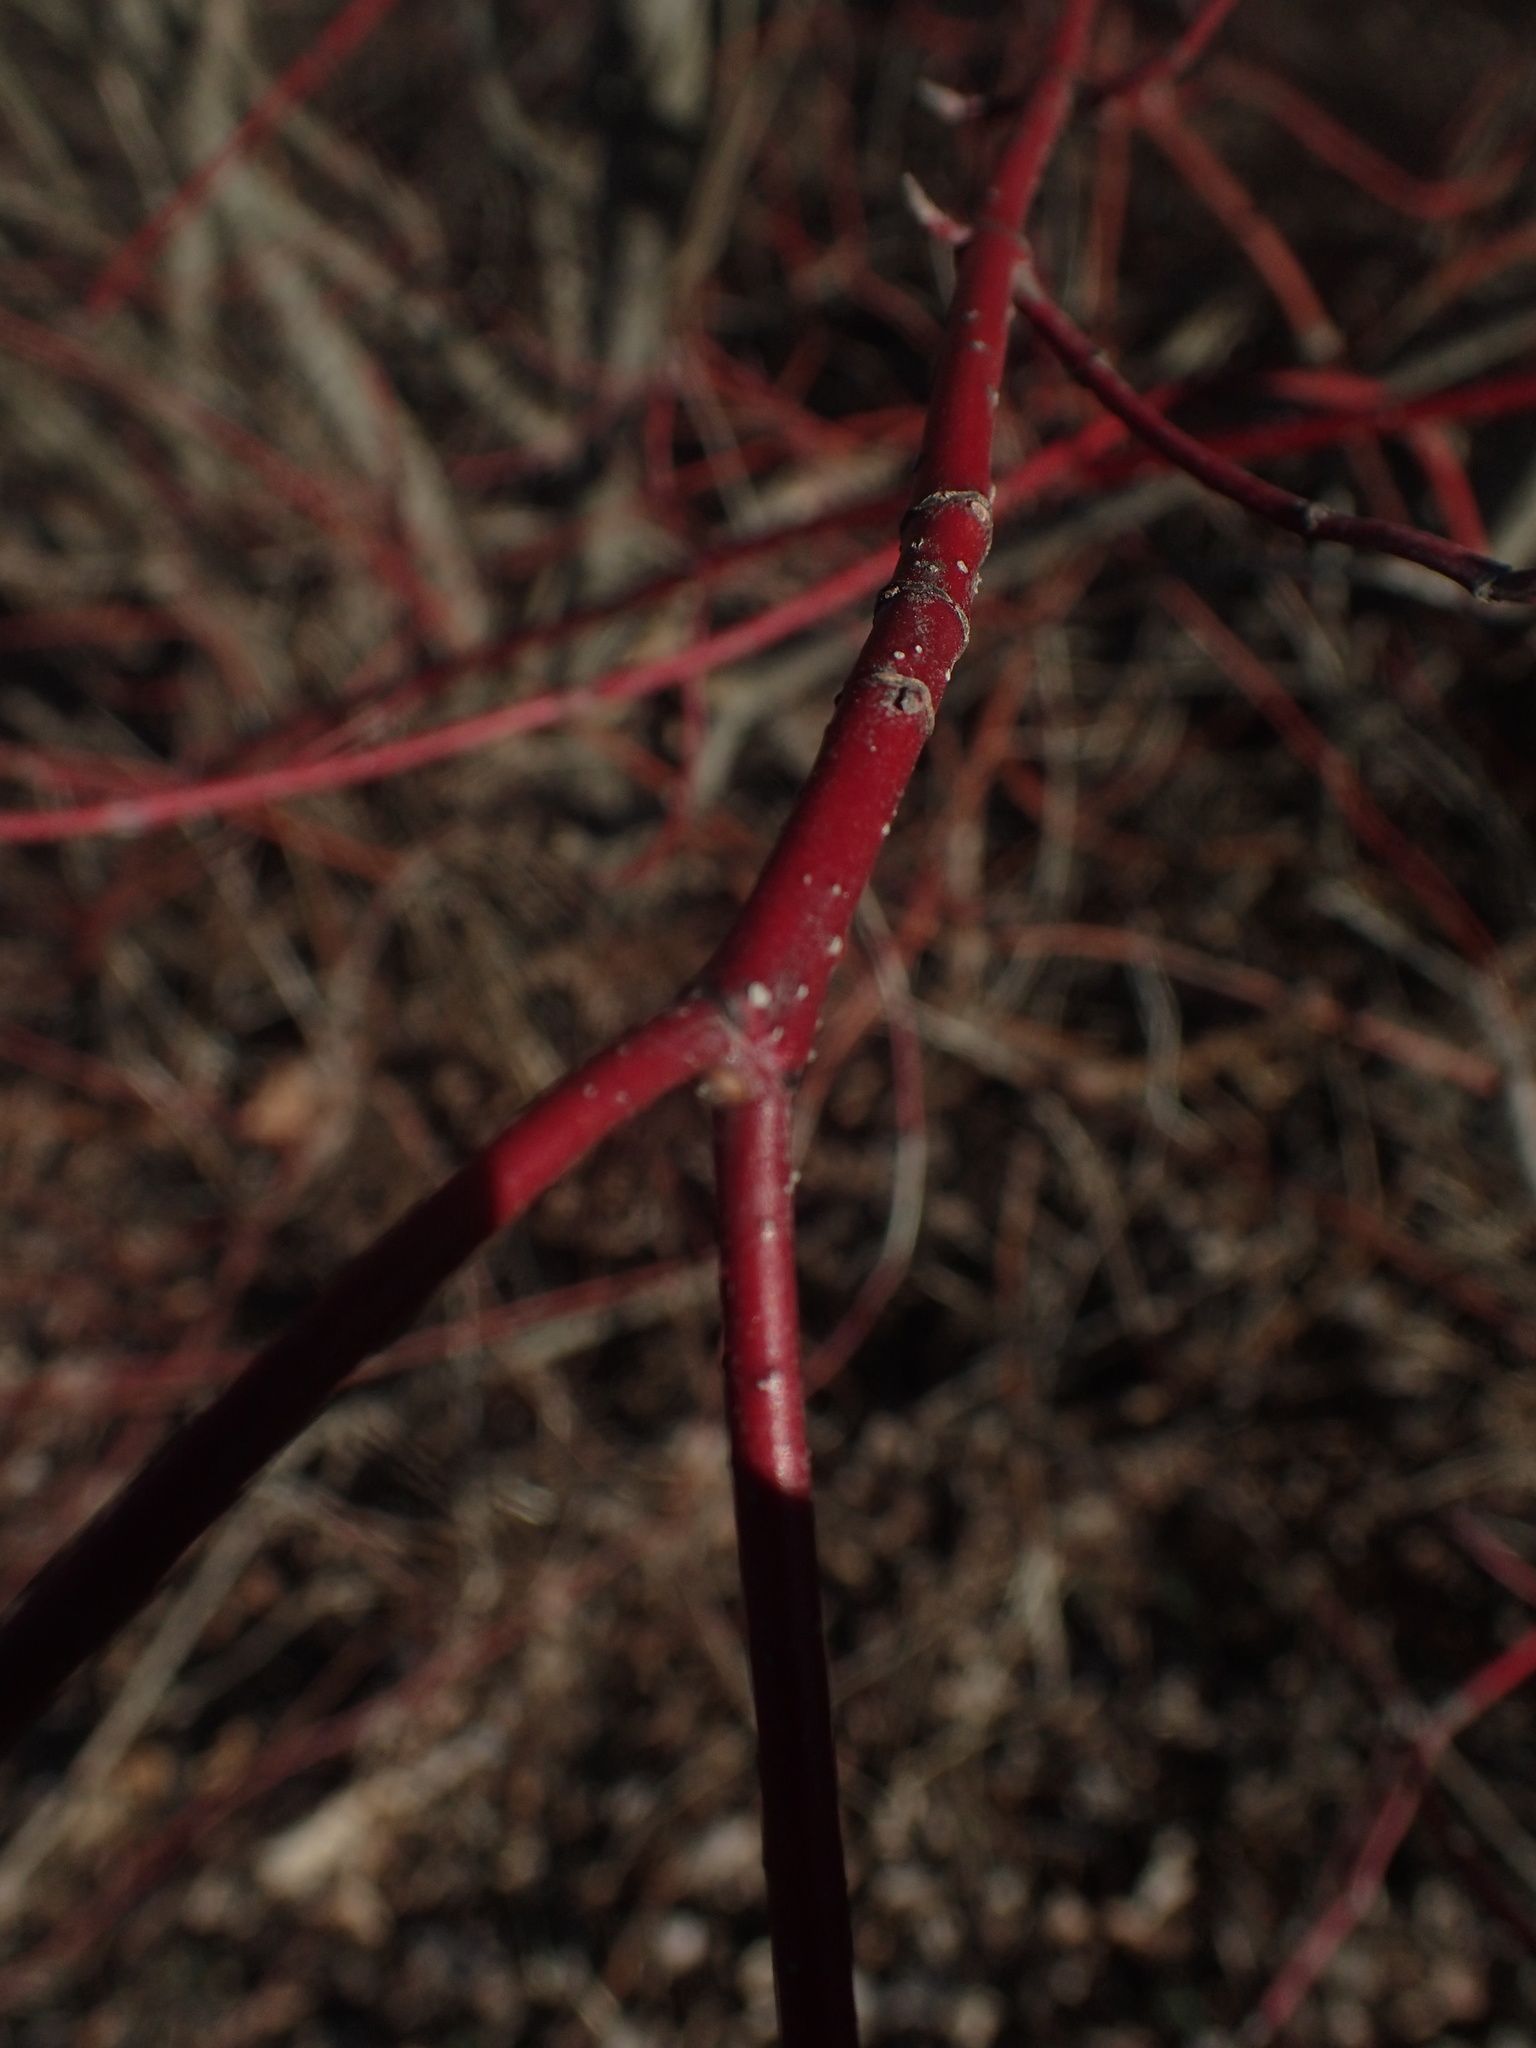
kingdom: Plantae
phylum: Tracheophyta
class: Magnoliopsida
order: Cornales
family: Cornaceae
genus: Cornus
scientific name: Cornus sericea
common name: Red-osier dogwood
